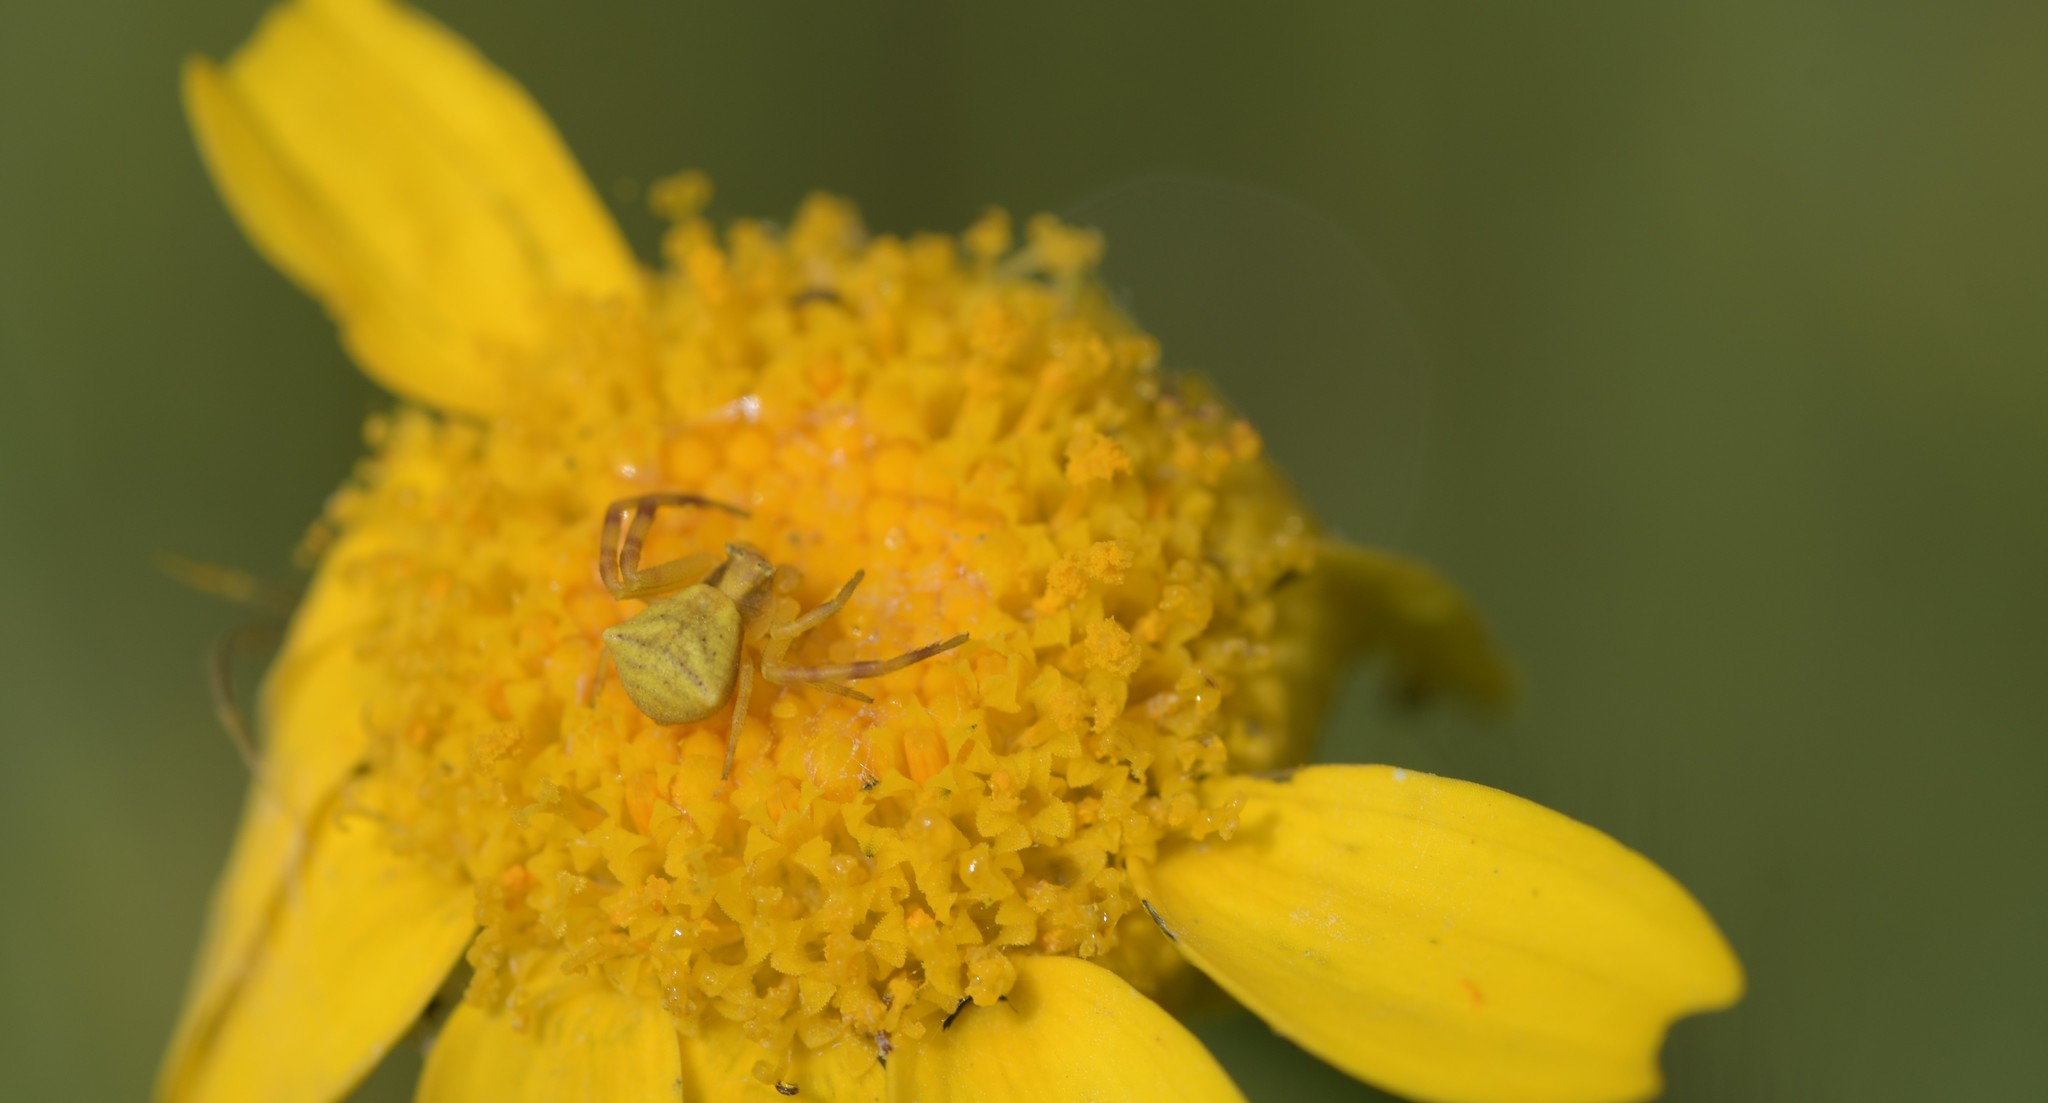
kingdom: Animalia
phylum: Arthropoda
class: Arachnida
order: Araneae
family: Thomisidae
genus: Thomisus
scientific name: Thomisus onustus
